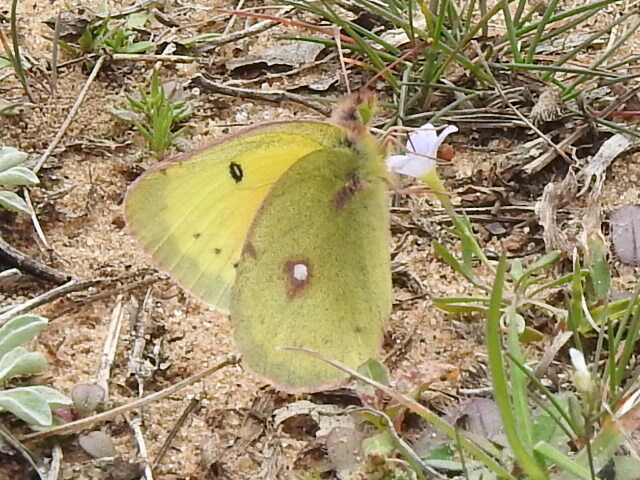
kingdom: Animalia
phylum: Arthropoda
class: Insecta
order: Lepidoptera
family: Pieridae
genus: Colias
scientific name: Colias eurytheme
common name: Alfalfa butterfly
